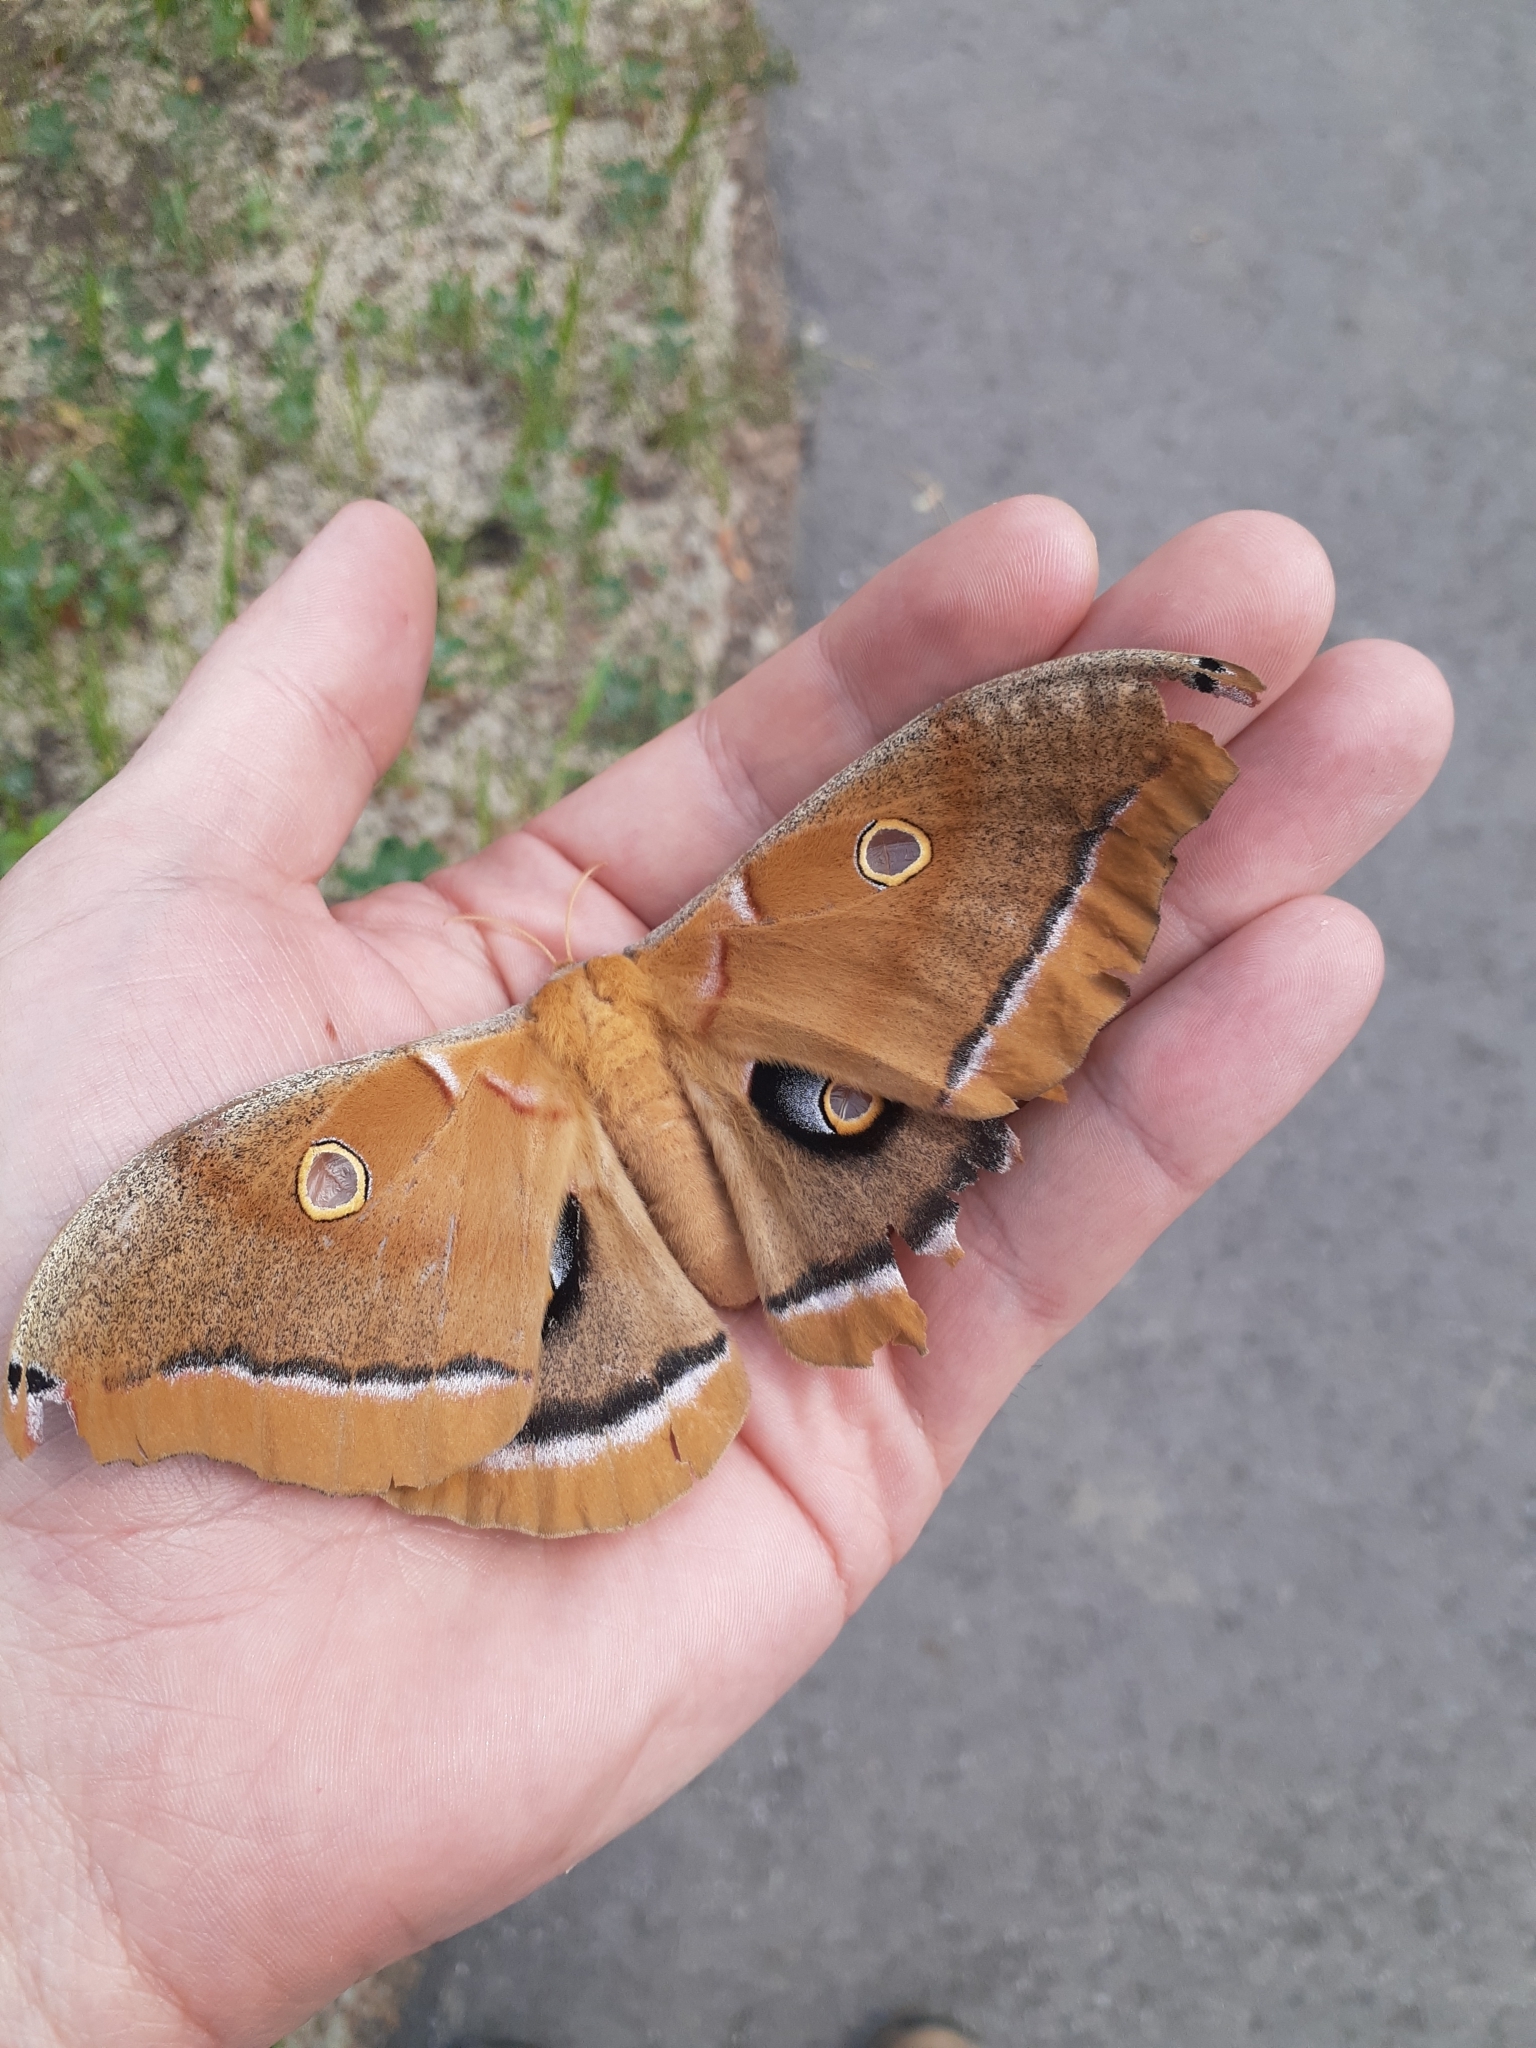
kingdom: Animalia
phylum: Arthropoda
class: Insecta
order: Lepidoptera
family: Saturniidae
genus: Antheraea
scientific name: Antheraea polyphemus
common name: Polyphemus moth
